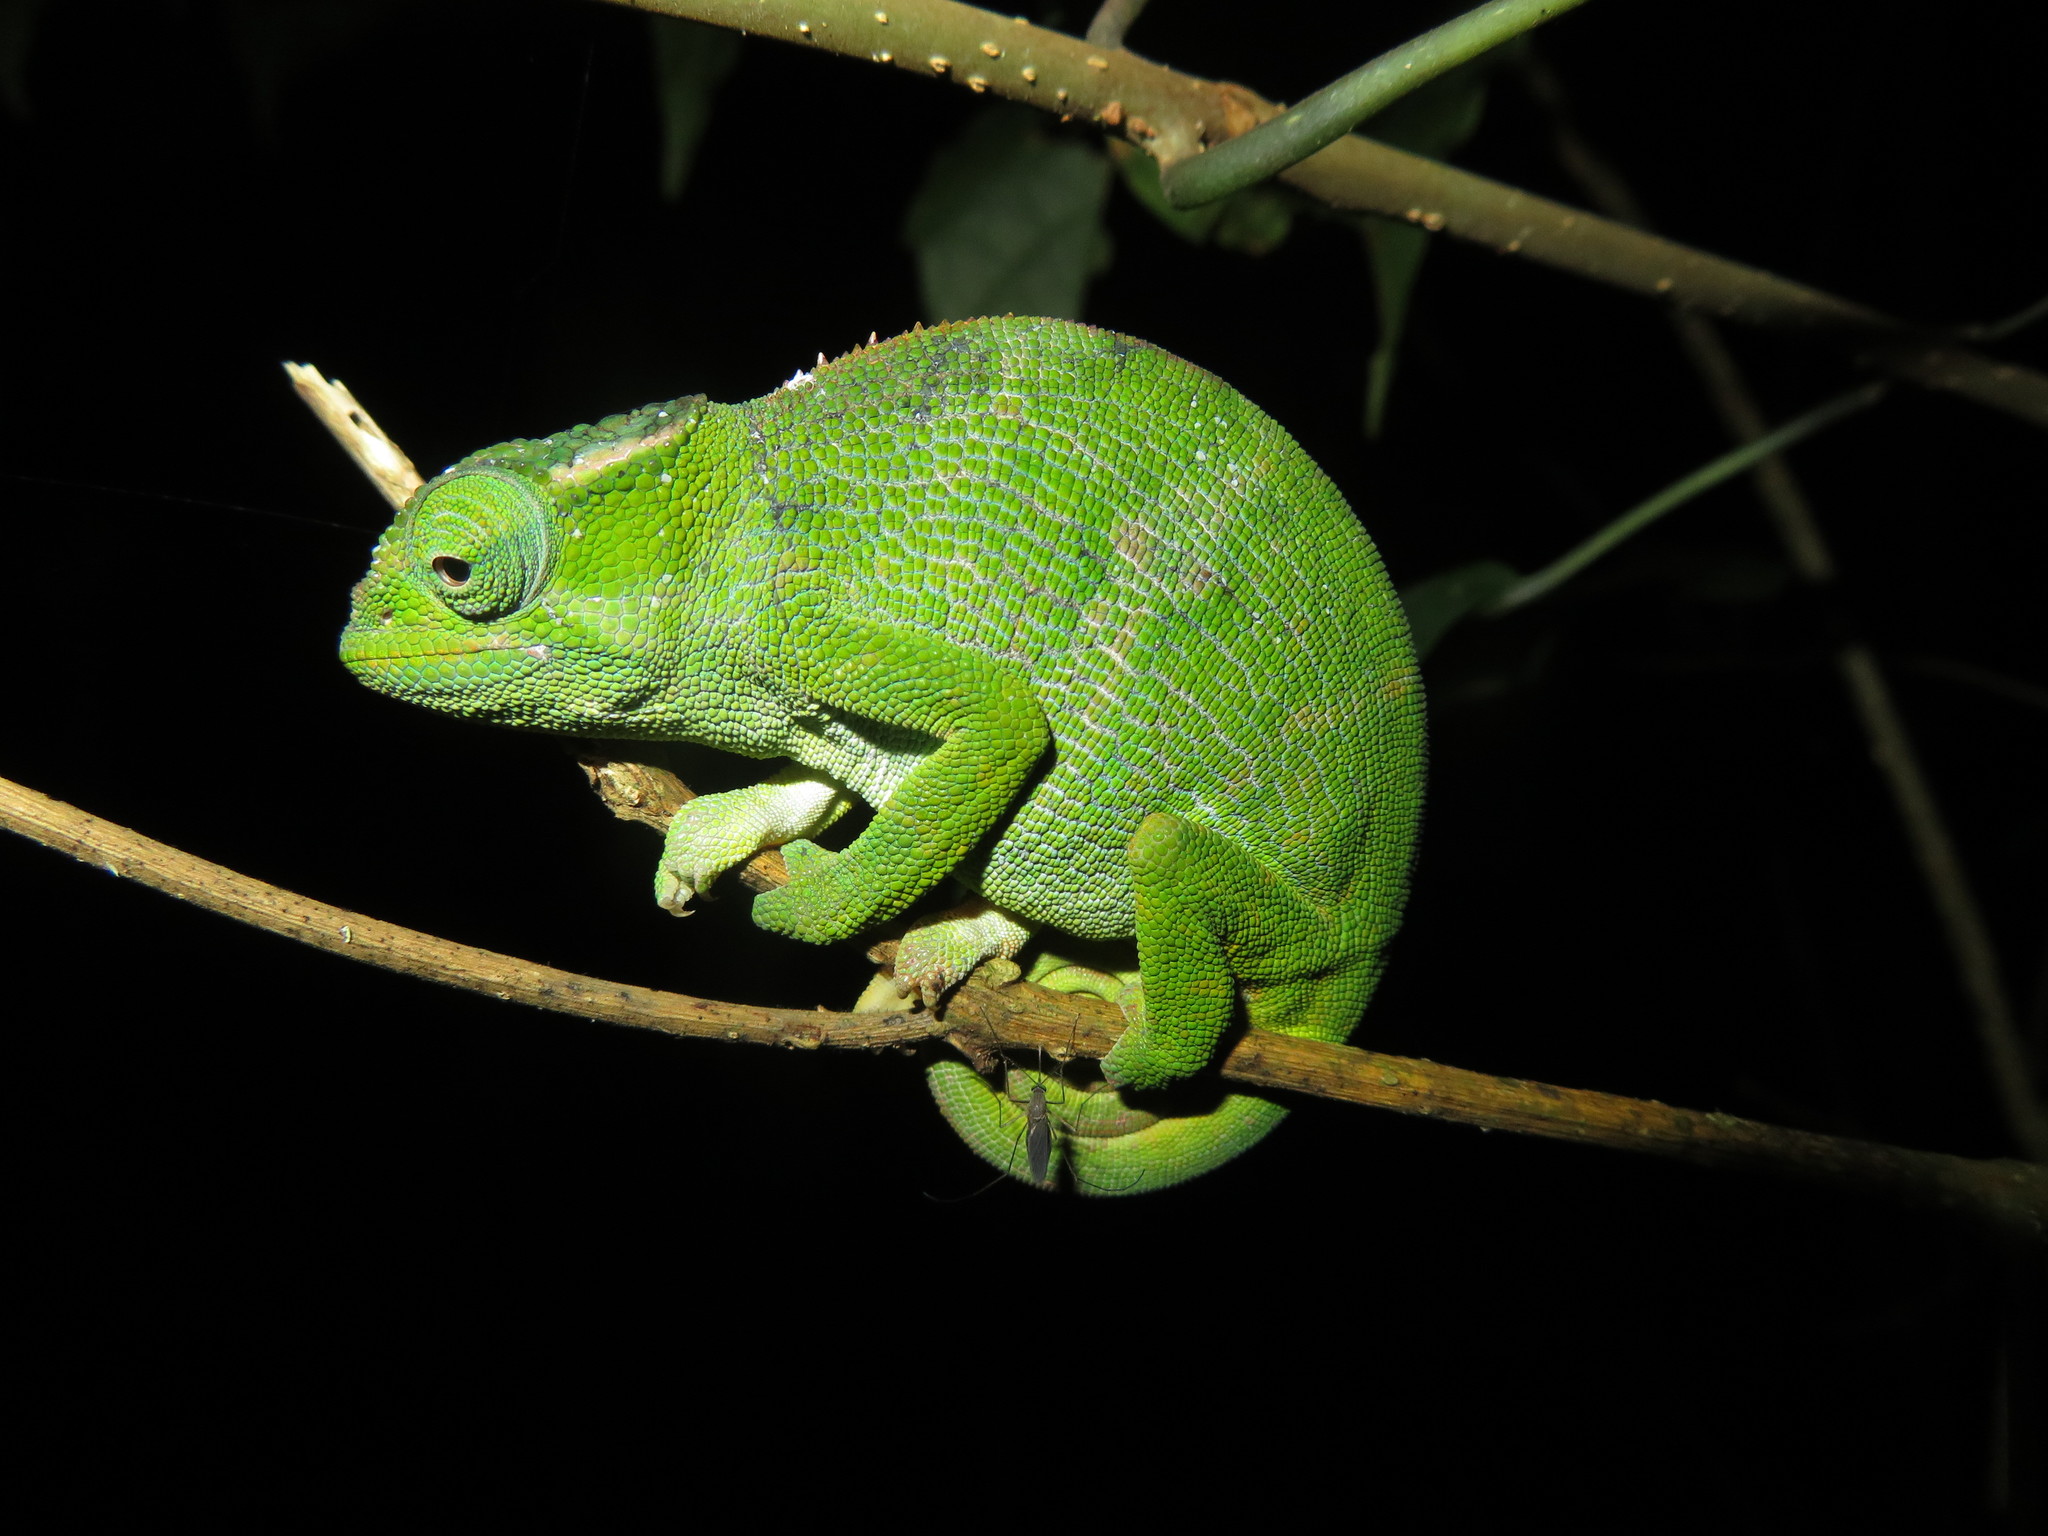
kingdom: Animalia
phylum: Chordata
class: Squamata
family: Chamaeleonidae
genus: Kinyongia
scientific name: Kinyongia vosseleri
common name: Vosseler's blade-horned chameleon
